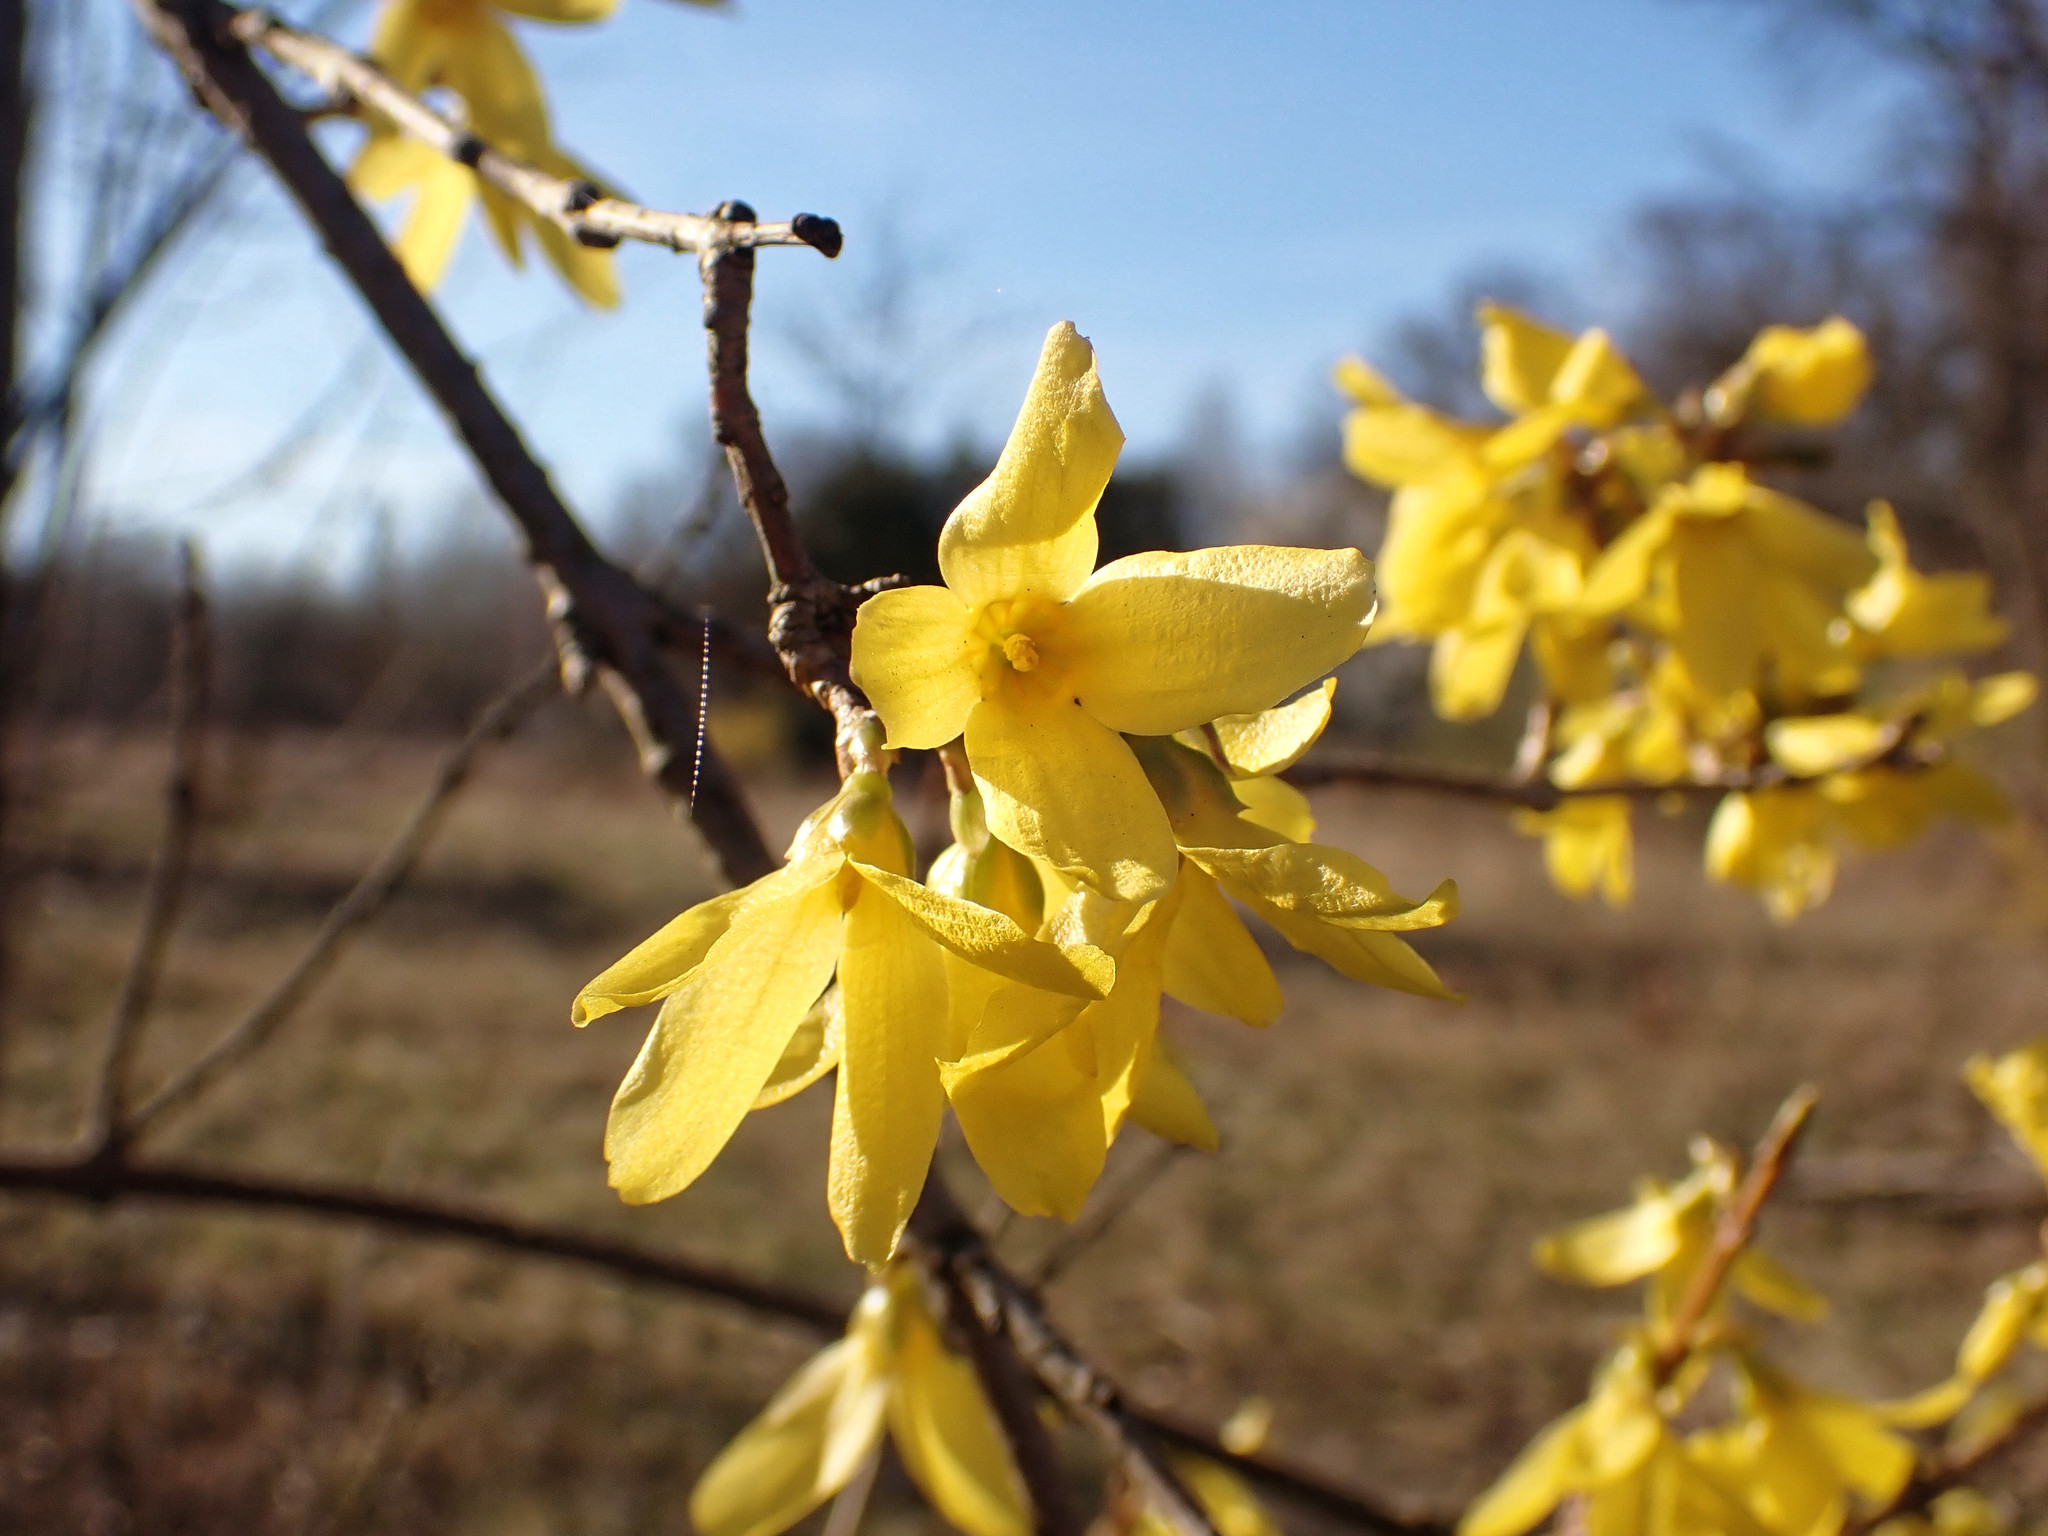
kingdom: Plantae
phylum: Tracheophyta
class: Magnoliopsida
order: Lamiales
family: Oleaceae
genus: Forsythia
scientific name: Forsythia intermedia
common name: Forsythia
